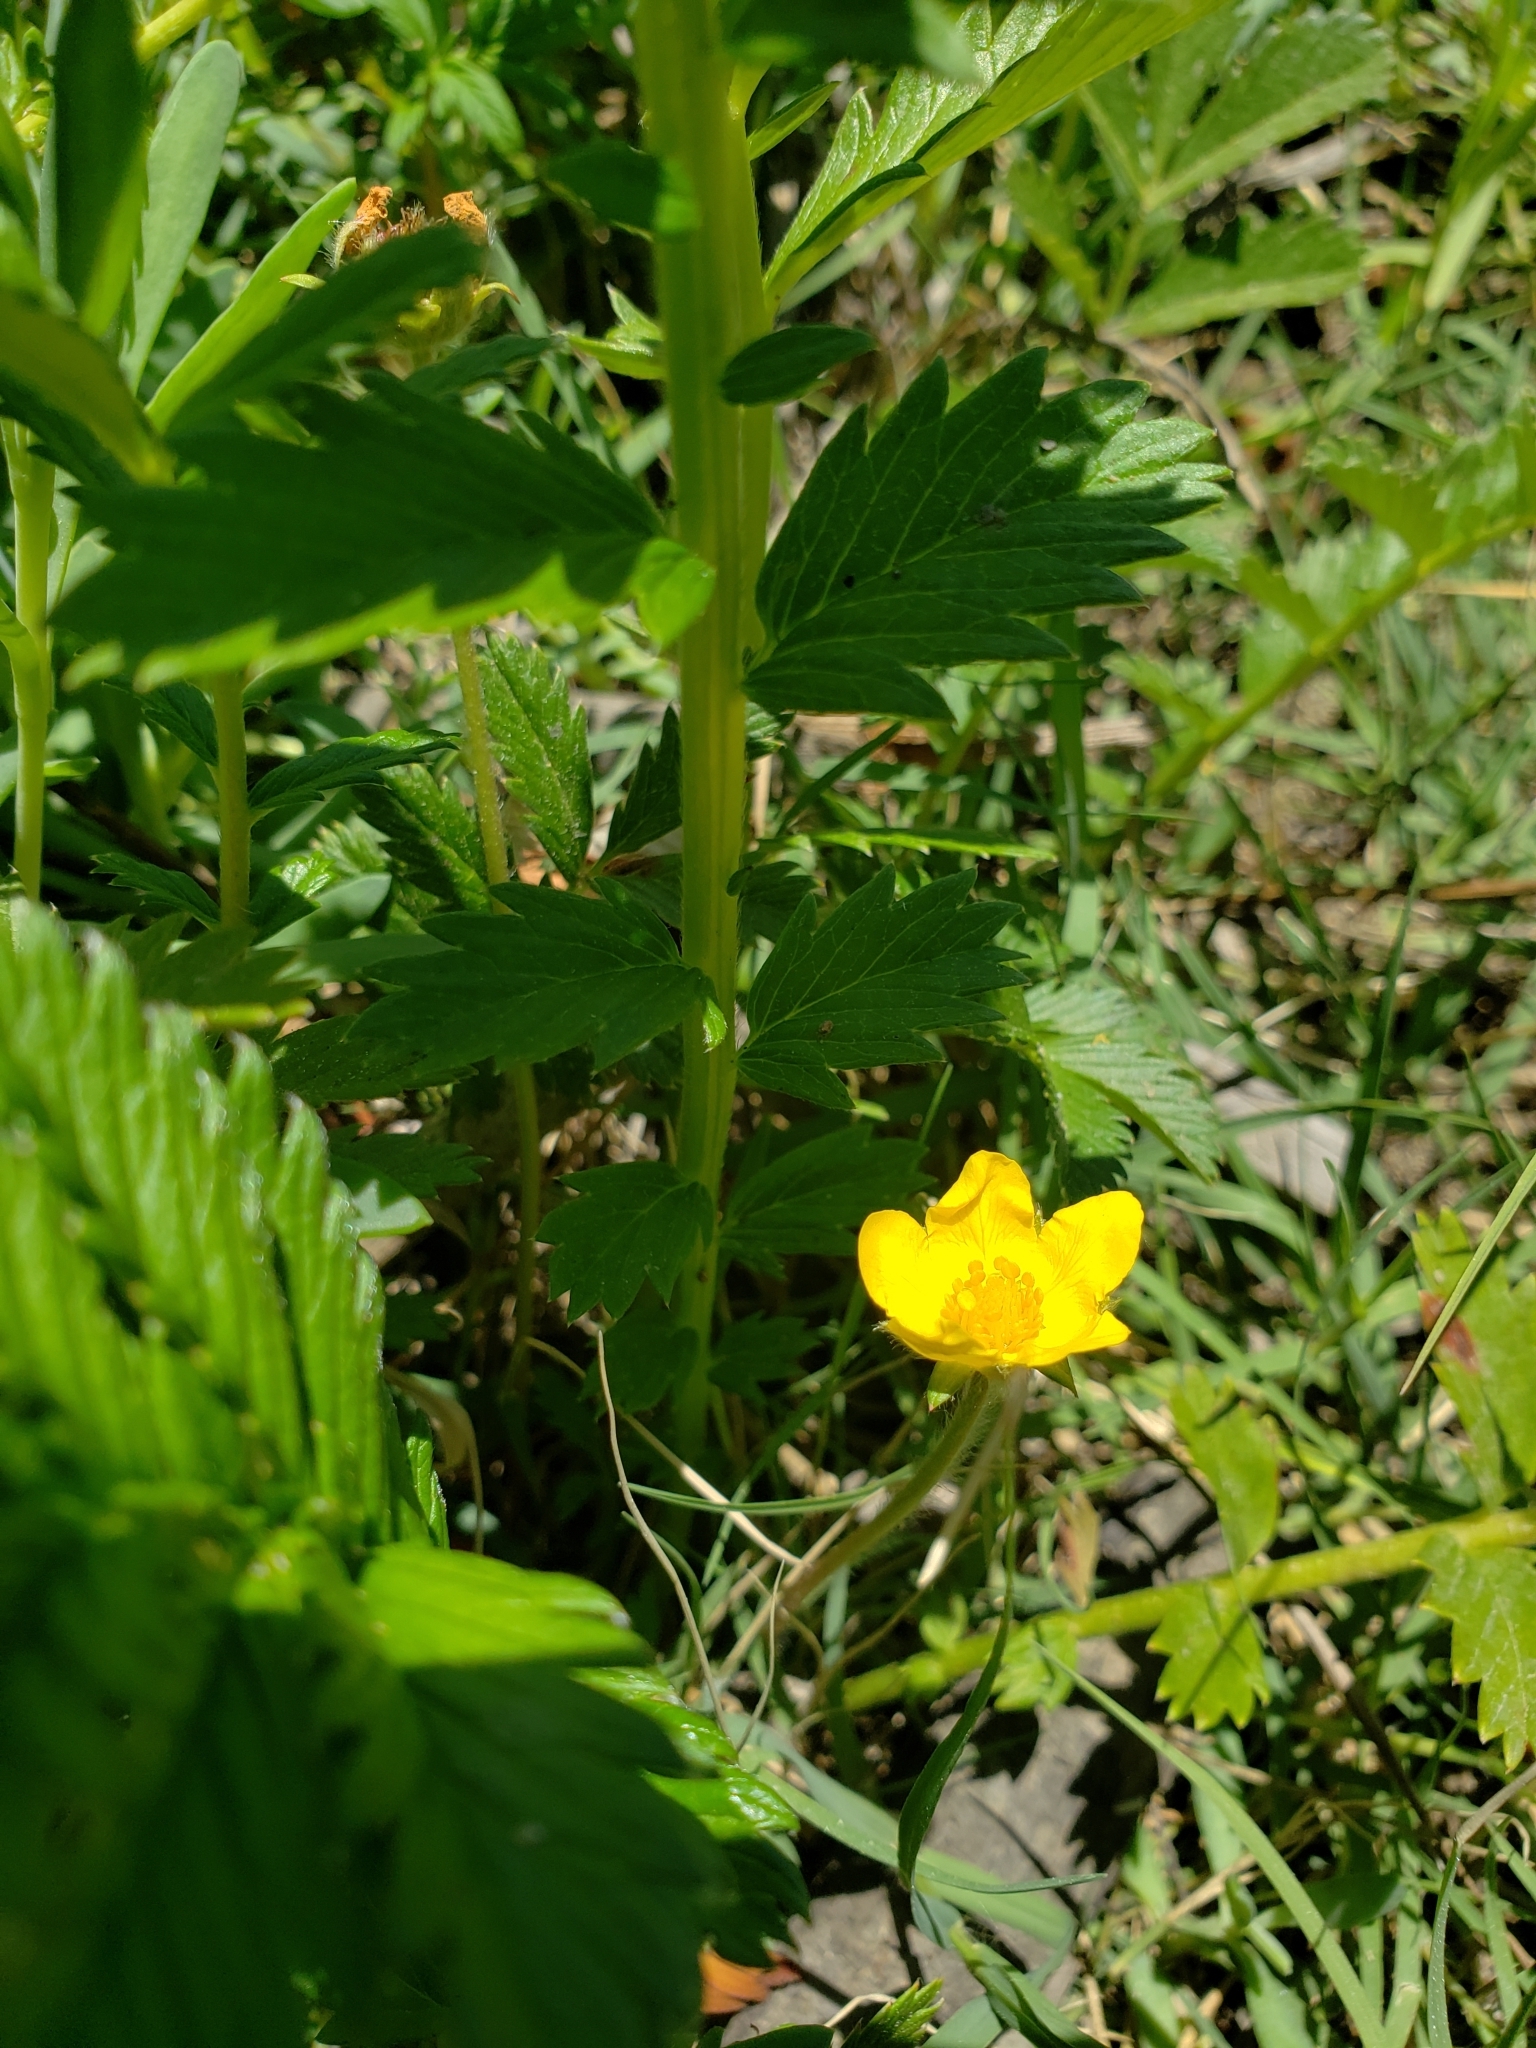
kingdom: Plantae
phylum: Tracheophyta
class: Magnoliopsida
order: Rosales
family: Rosaceae
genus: Argentina
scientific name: Argentina anserina
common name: Common silverweed
